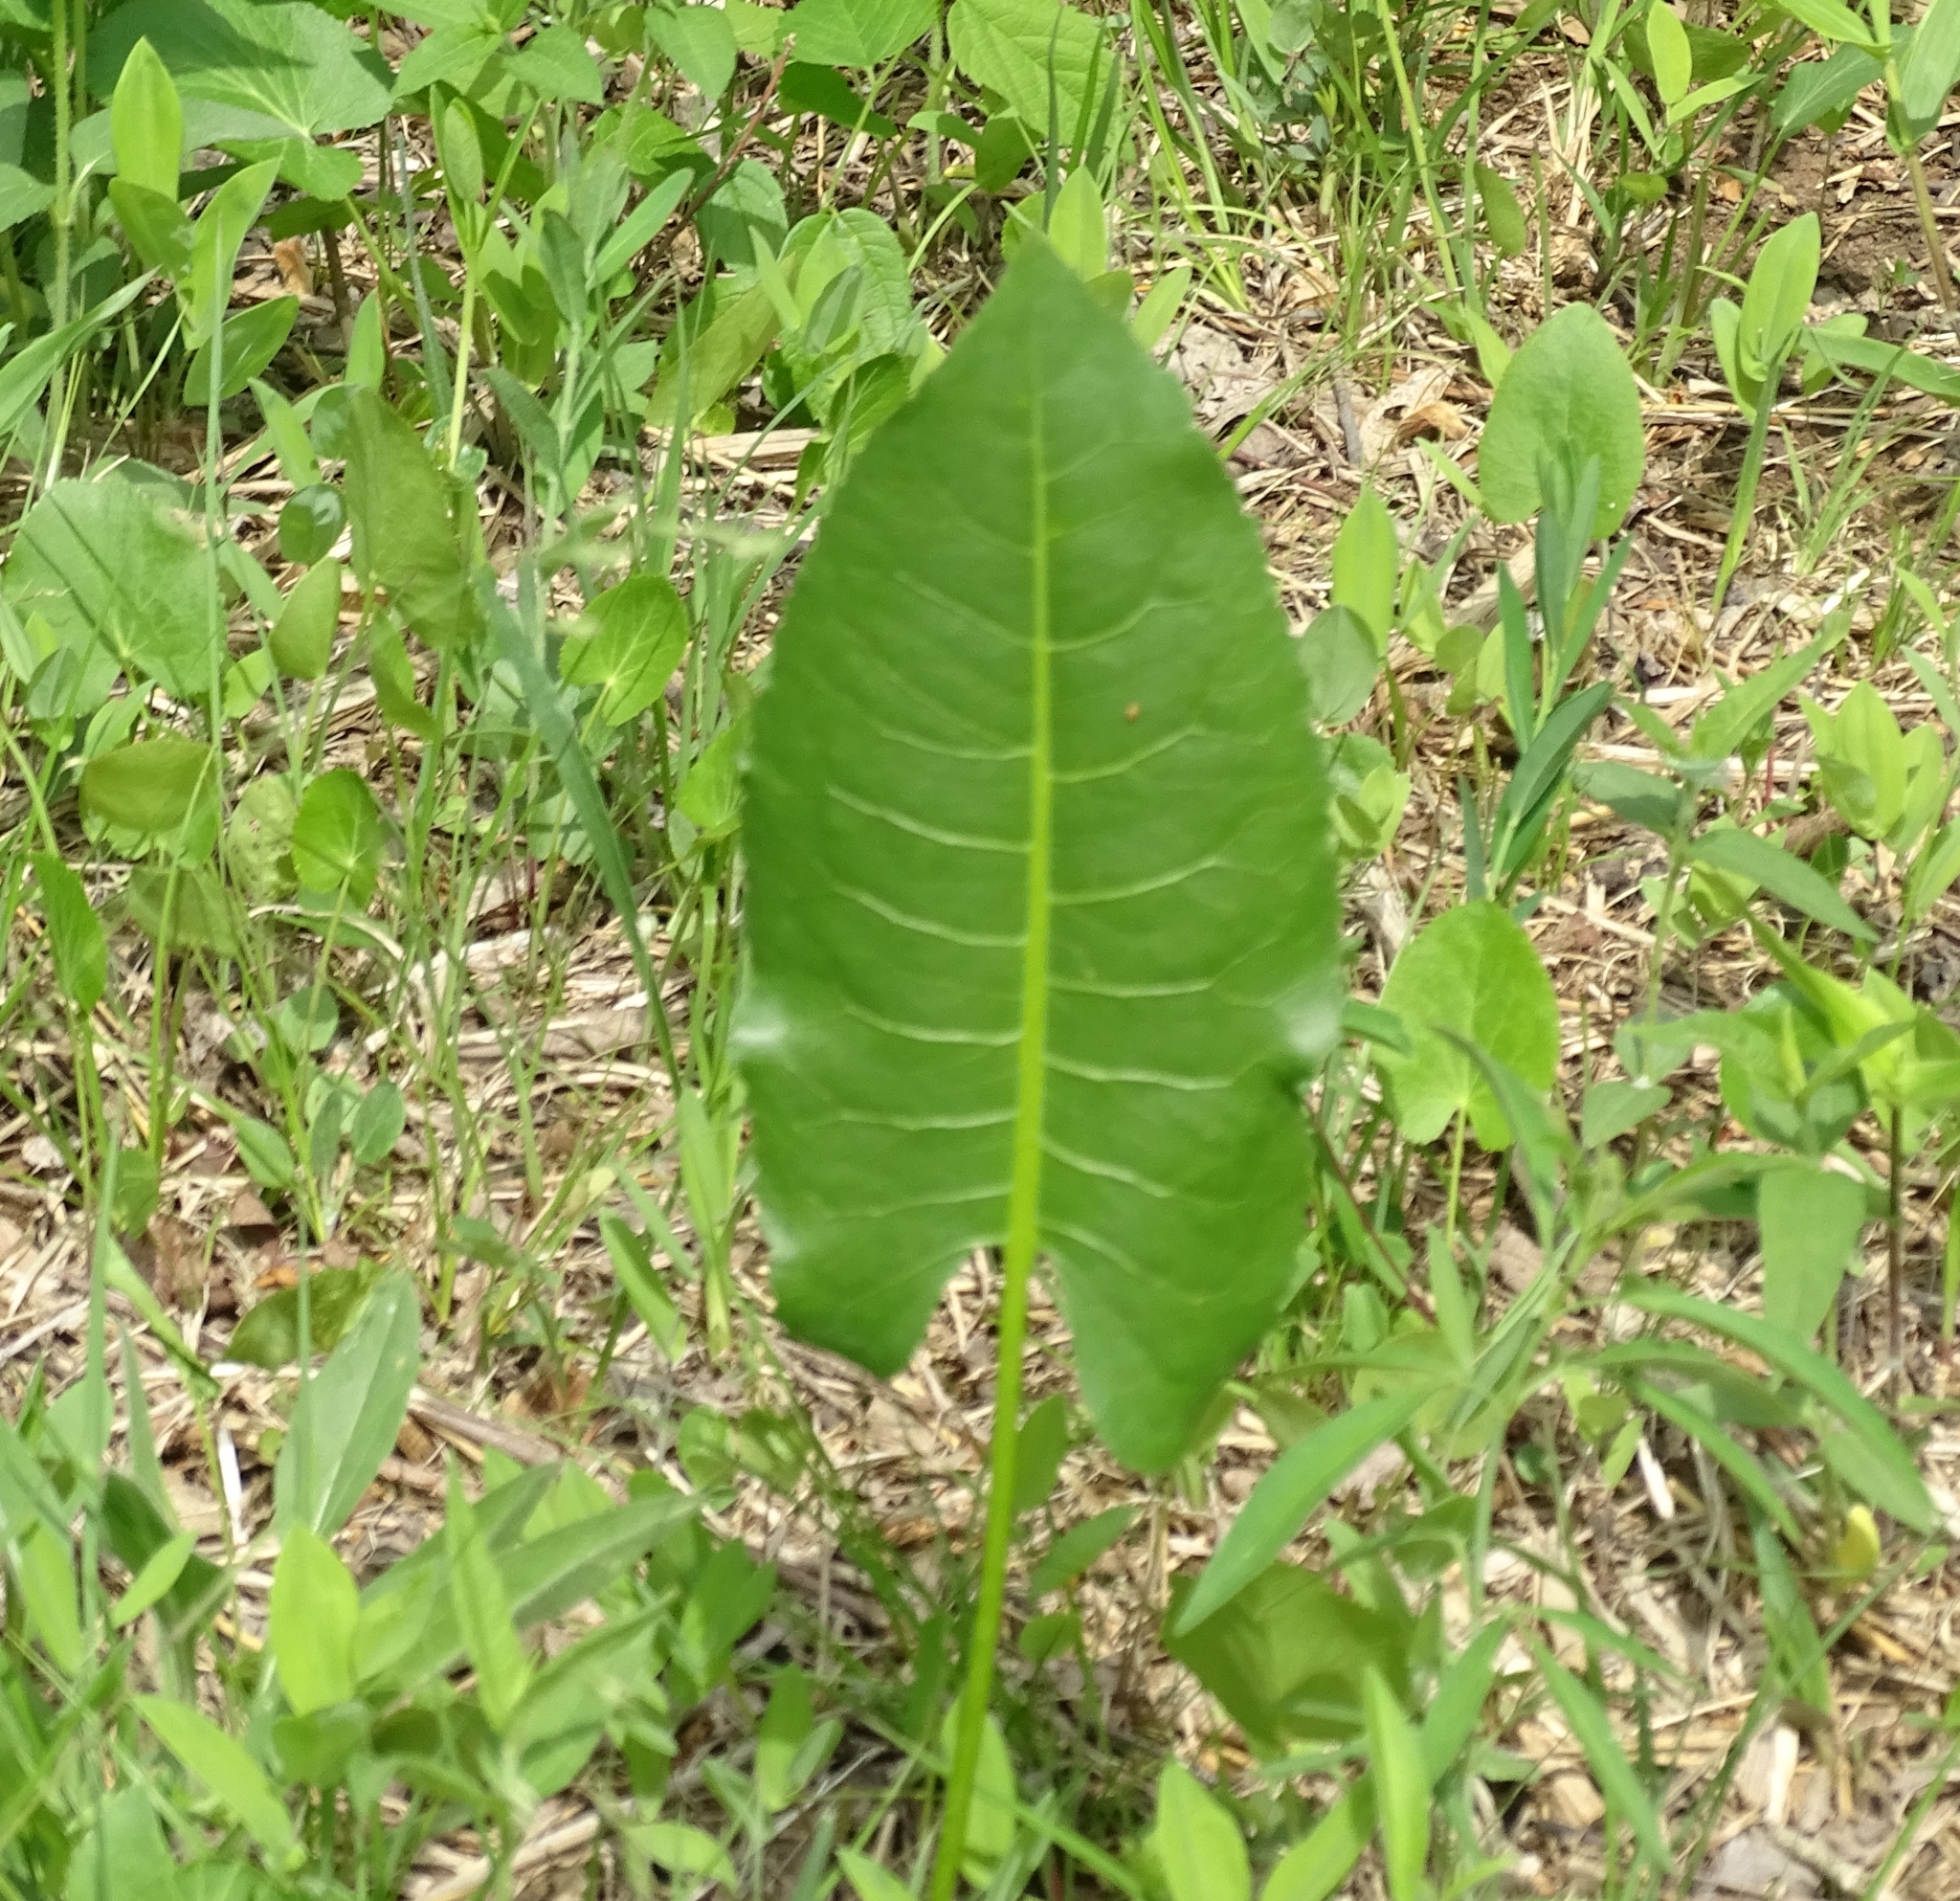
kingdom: Plantae
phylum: Tracheophyta
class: Magnoliopsida
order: Asterales
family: Asteraceae
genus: Silphium
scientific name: Silphium terebinthinaceum
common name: Basal-leaf rosinweed
